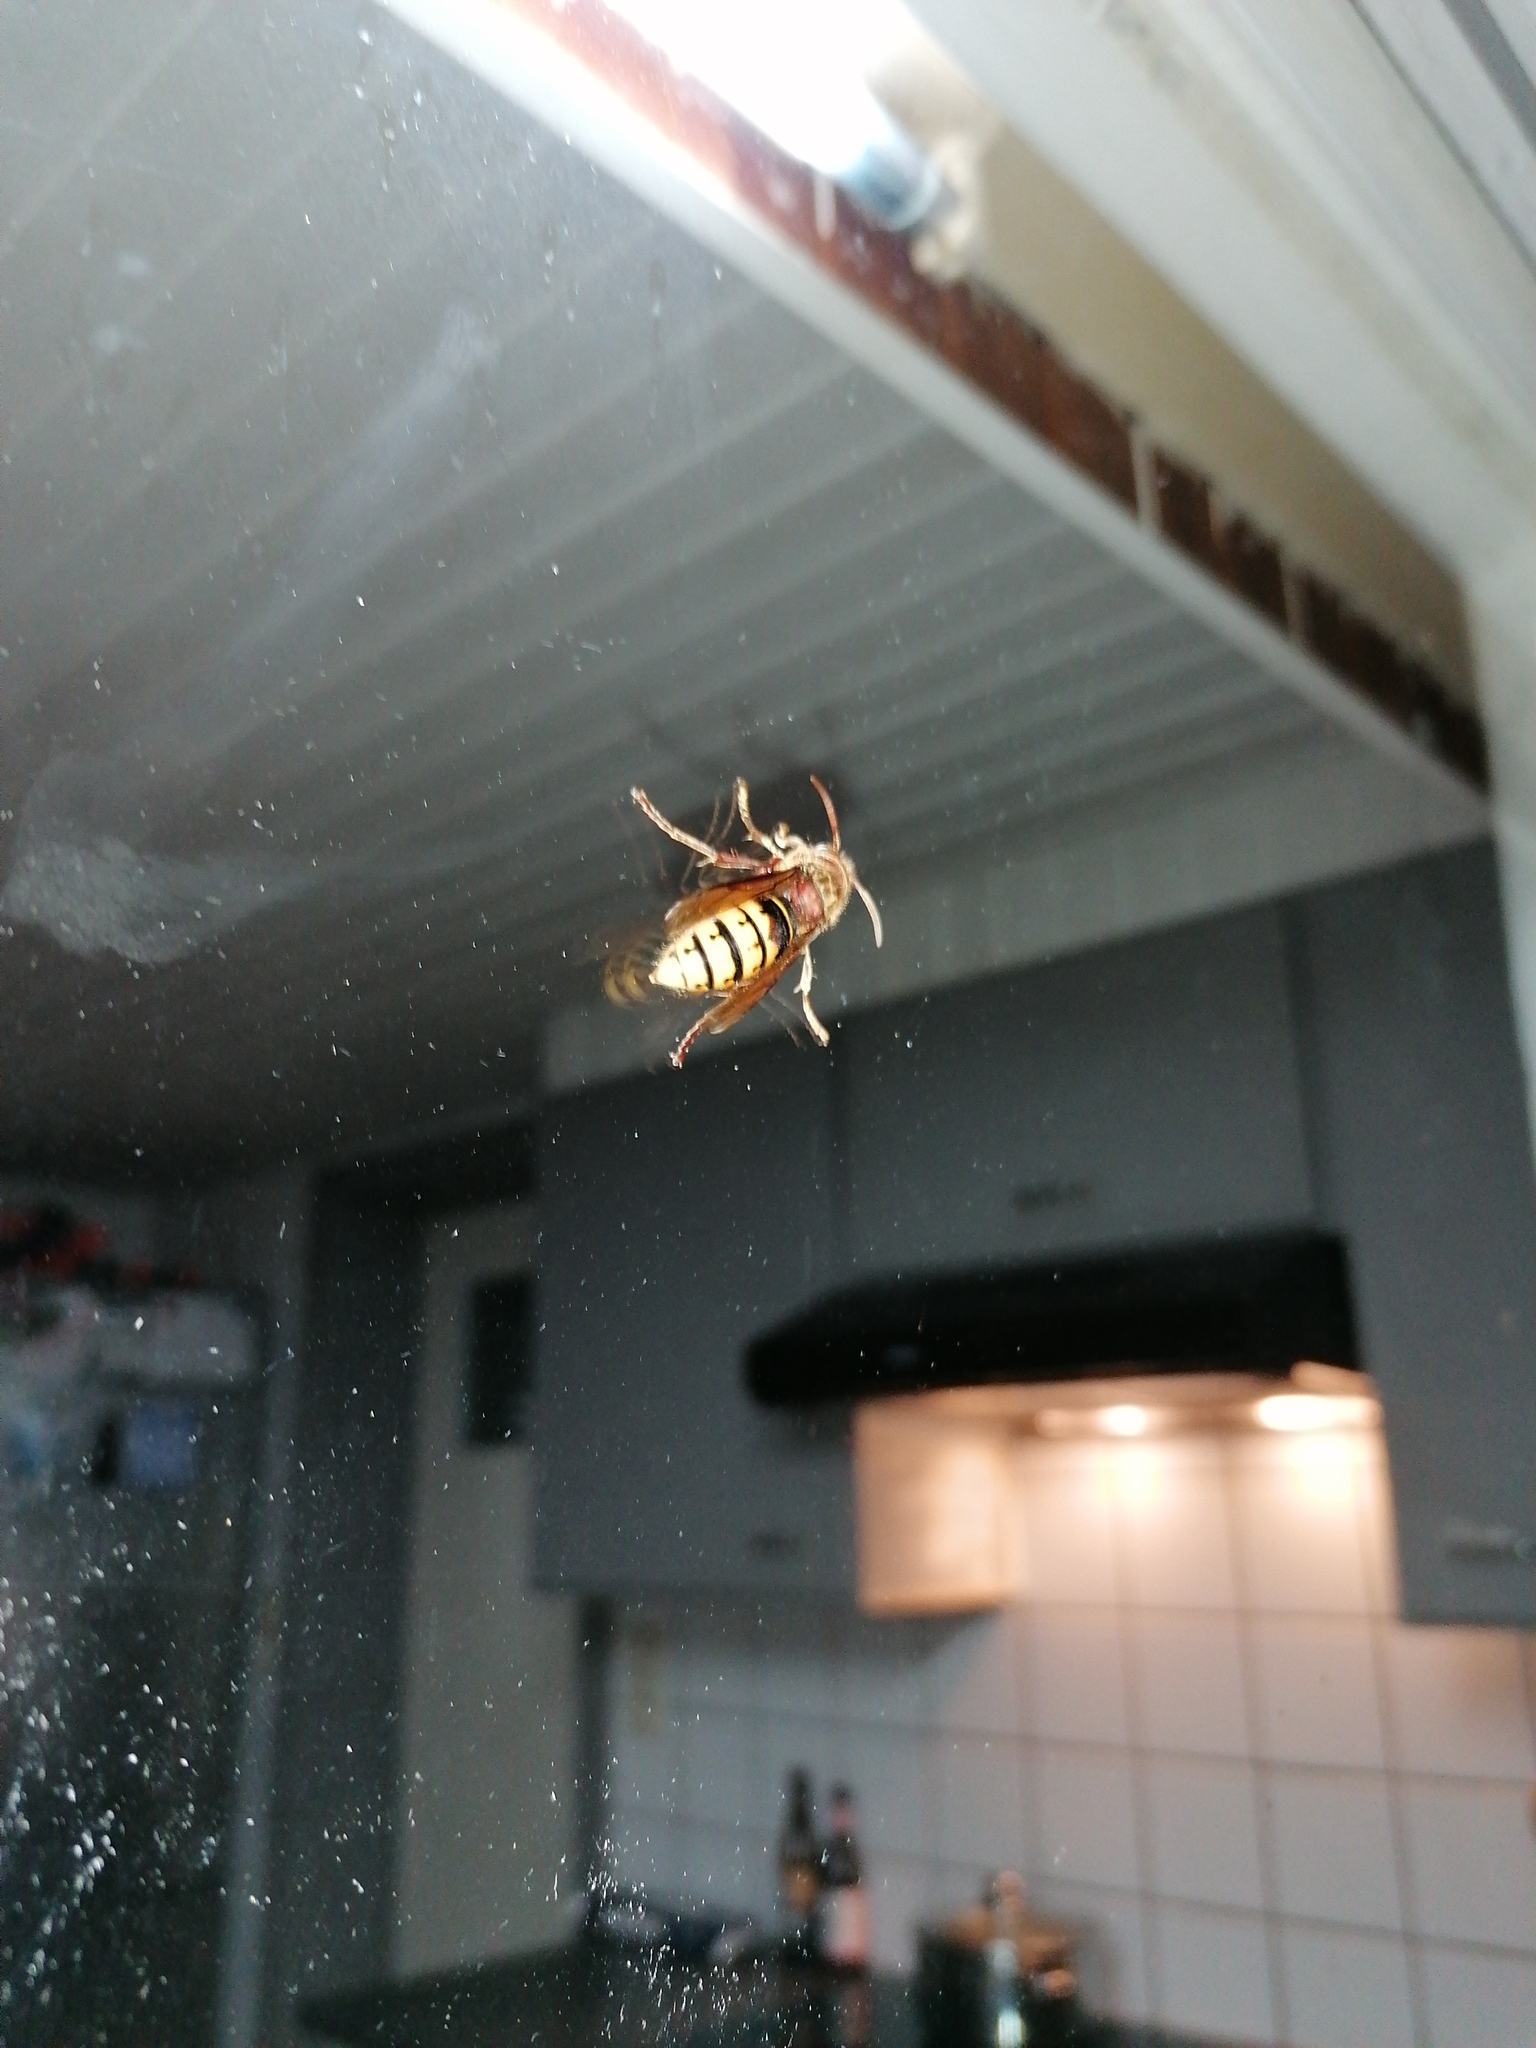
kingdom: Animalia
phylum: Arthropoda
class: Insecta
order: Hymenoptera
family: Vespidae
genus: Vespa
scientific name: Vespa crabro
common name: Hornet
